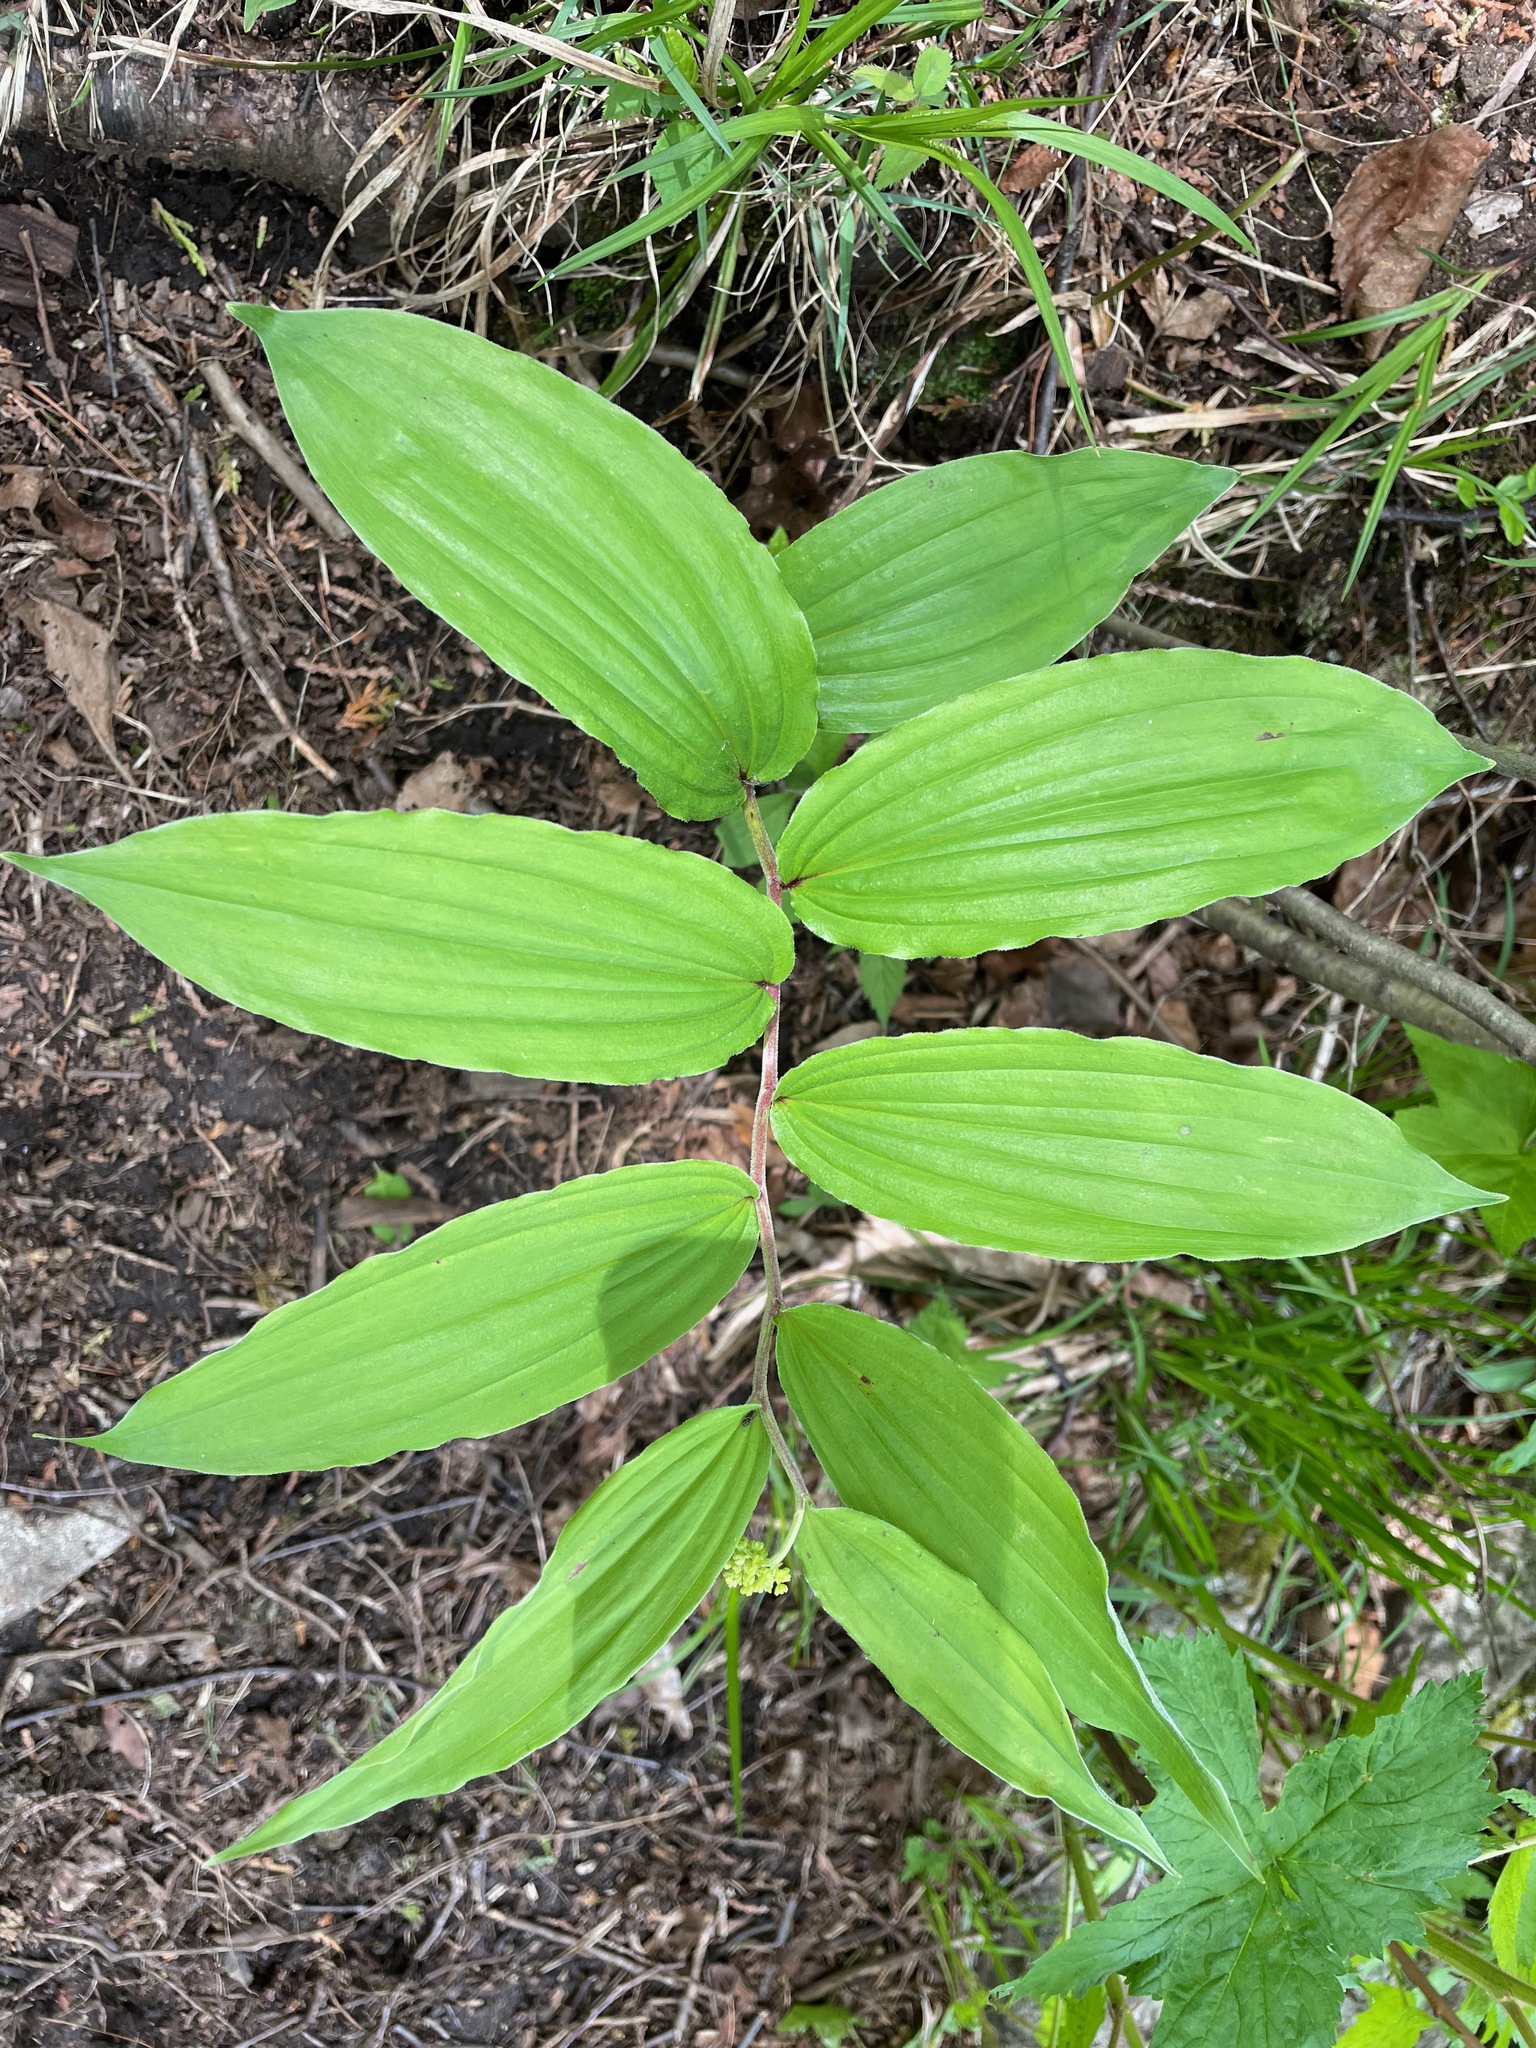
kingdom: Plantae
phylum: Tracheophyta
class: Liliopsida
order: Asparagales
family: Asparagaceae
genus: Maianthemum
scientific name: Maianthemum racemosum
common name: False spikenard
